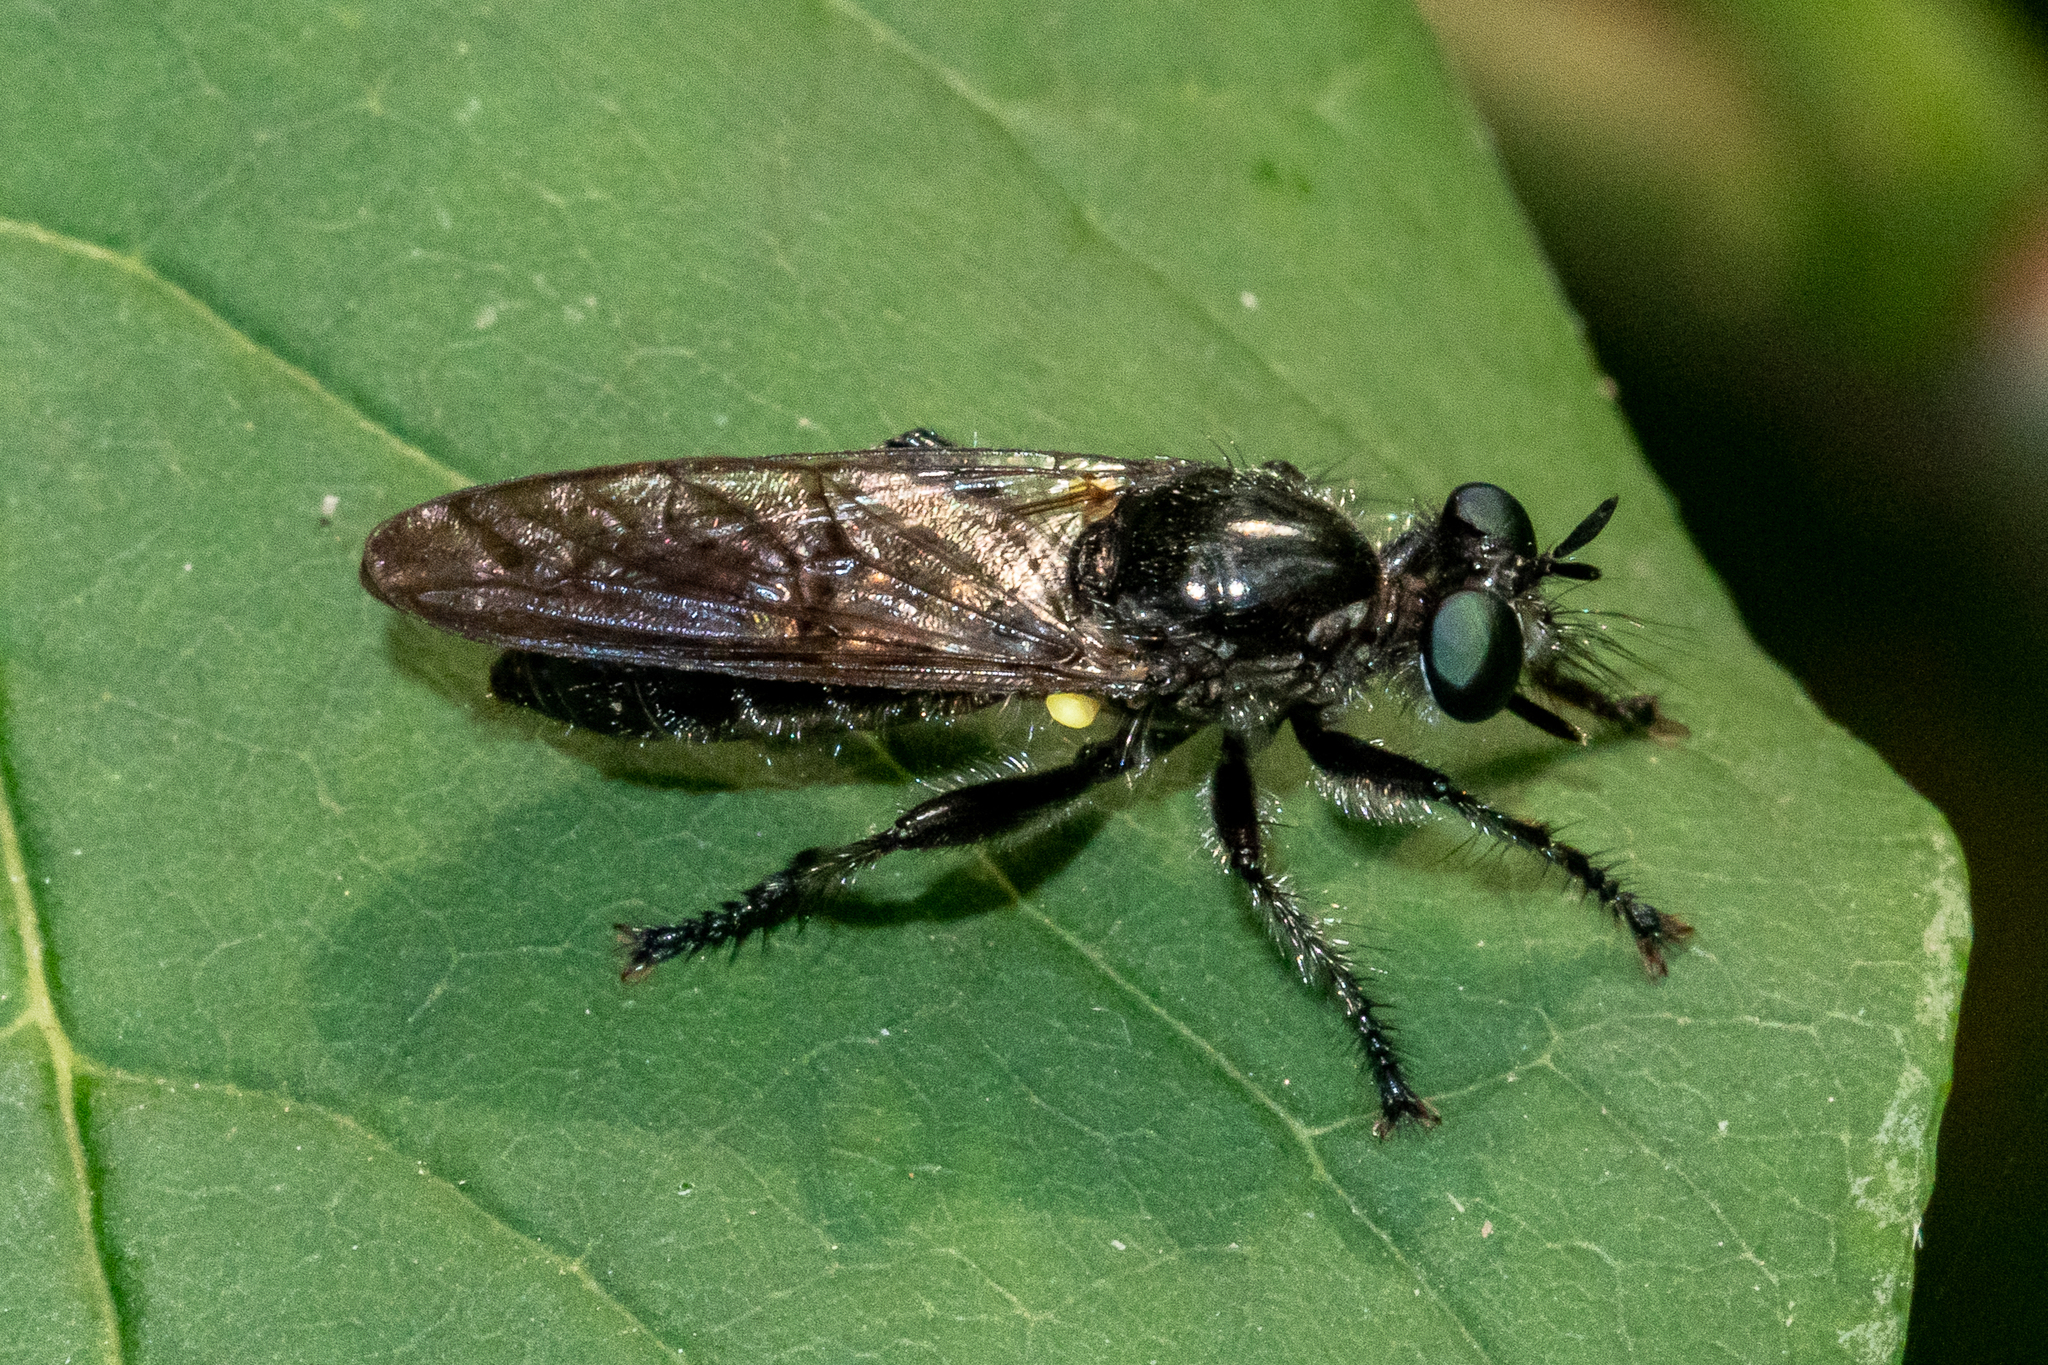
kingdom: Animalia
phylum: Arthropoda
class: Insecta
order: Diptera
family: Asilidae
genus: Laphria
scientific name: Laphria
